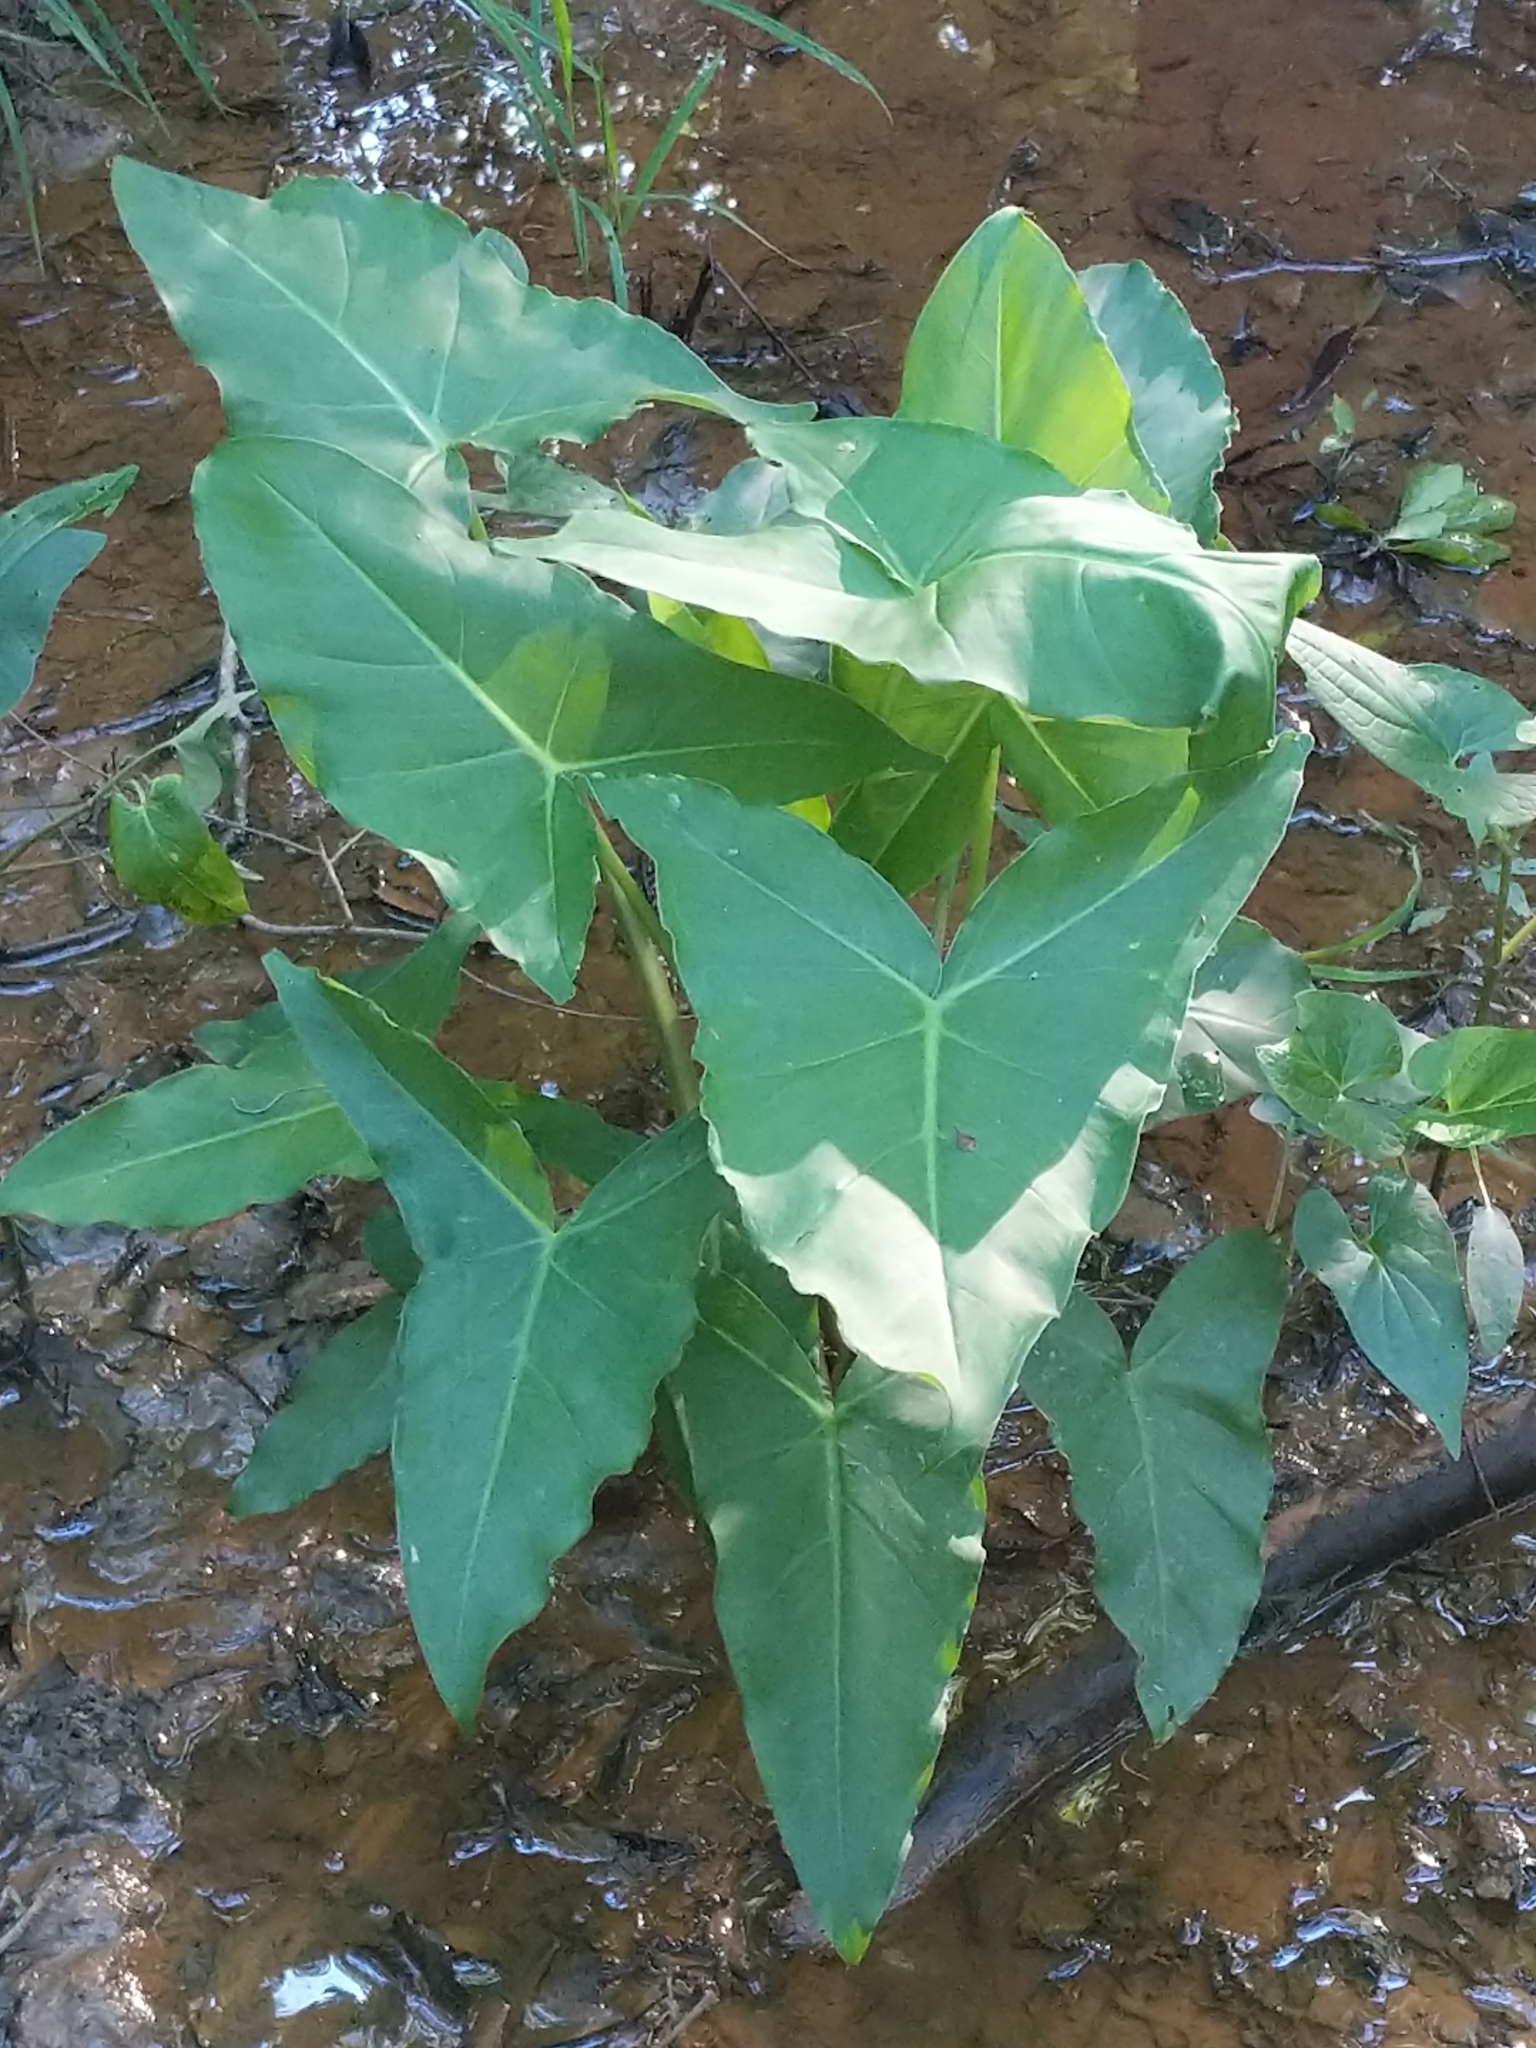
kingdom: Plantae
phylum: Tracheophyta
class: Liliopsida
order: Alismatales
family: Araceae
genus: Peltandra
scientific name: Peltandra virginica
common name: Arrow arum
